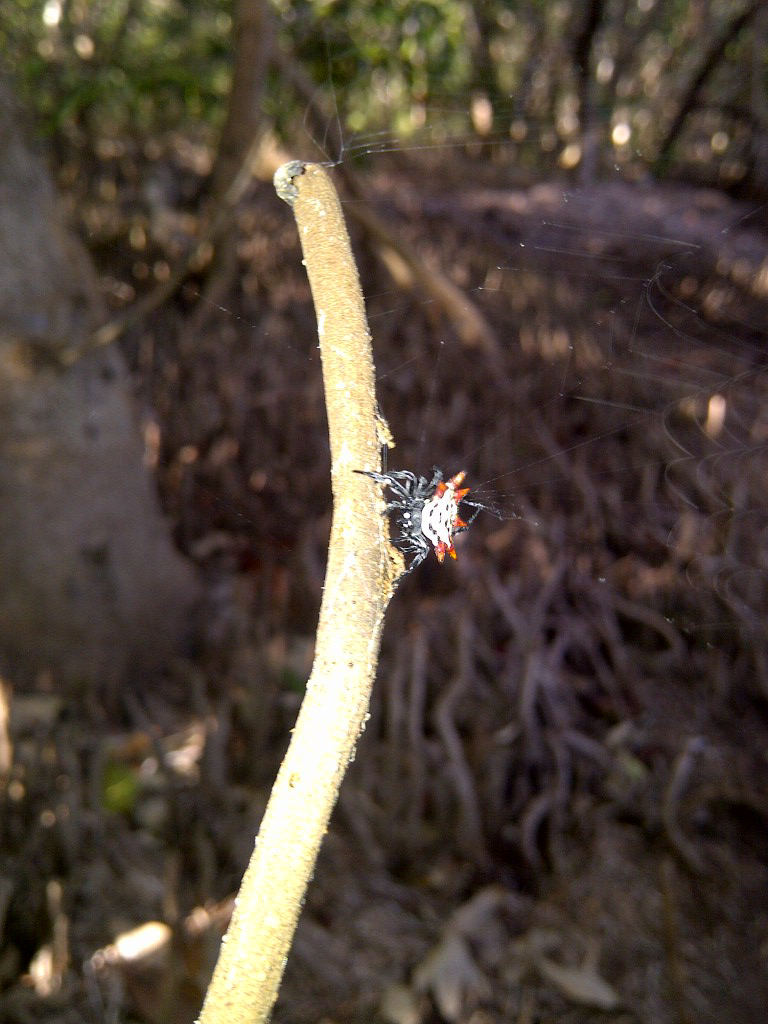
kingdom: Animalia
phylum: Arthropoda
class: Arachnida
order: Araneae
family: Araneidae
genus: Gasteracantha
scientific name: Gasteracantha cancriformis
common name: Orb weavers
